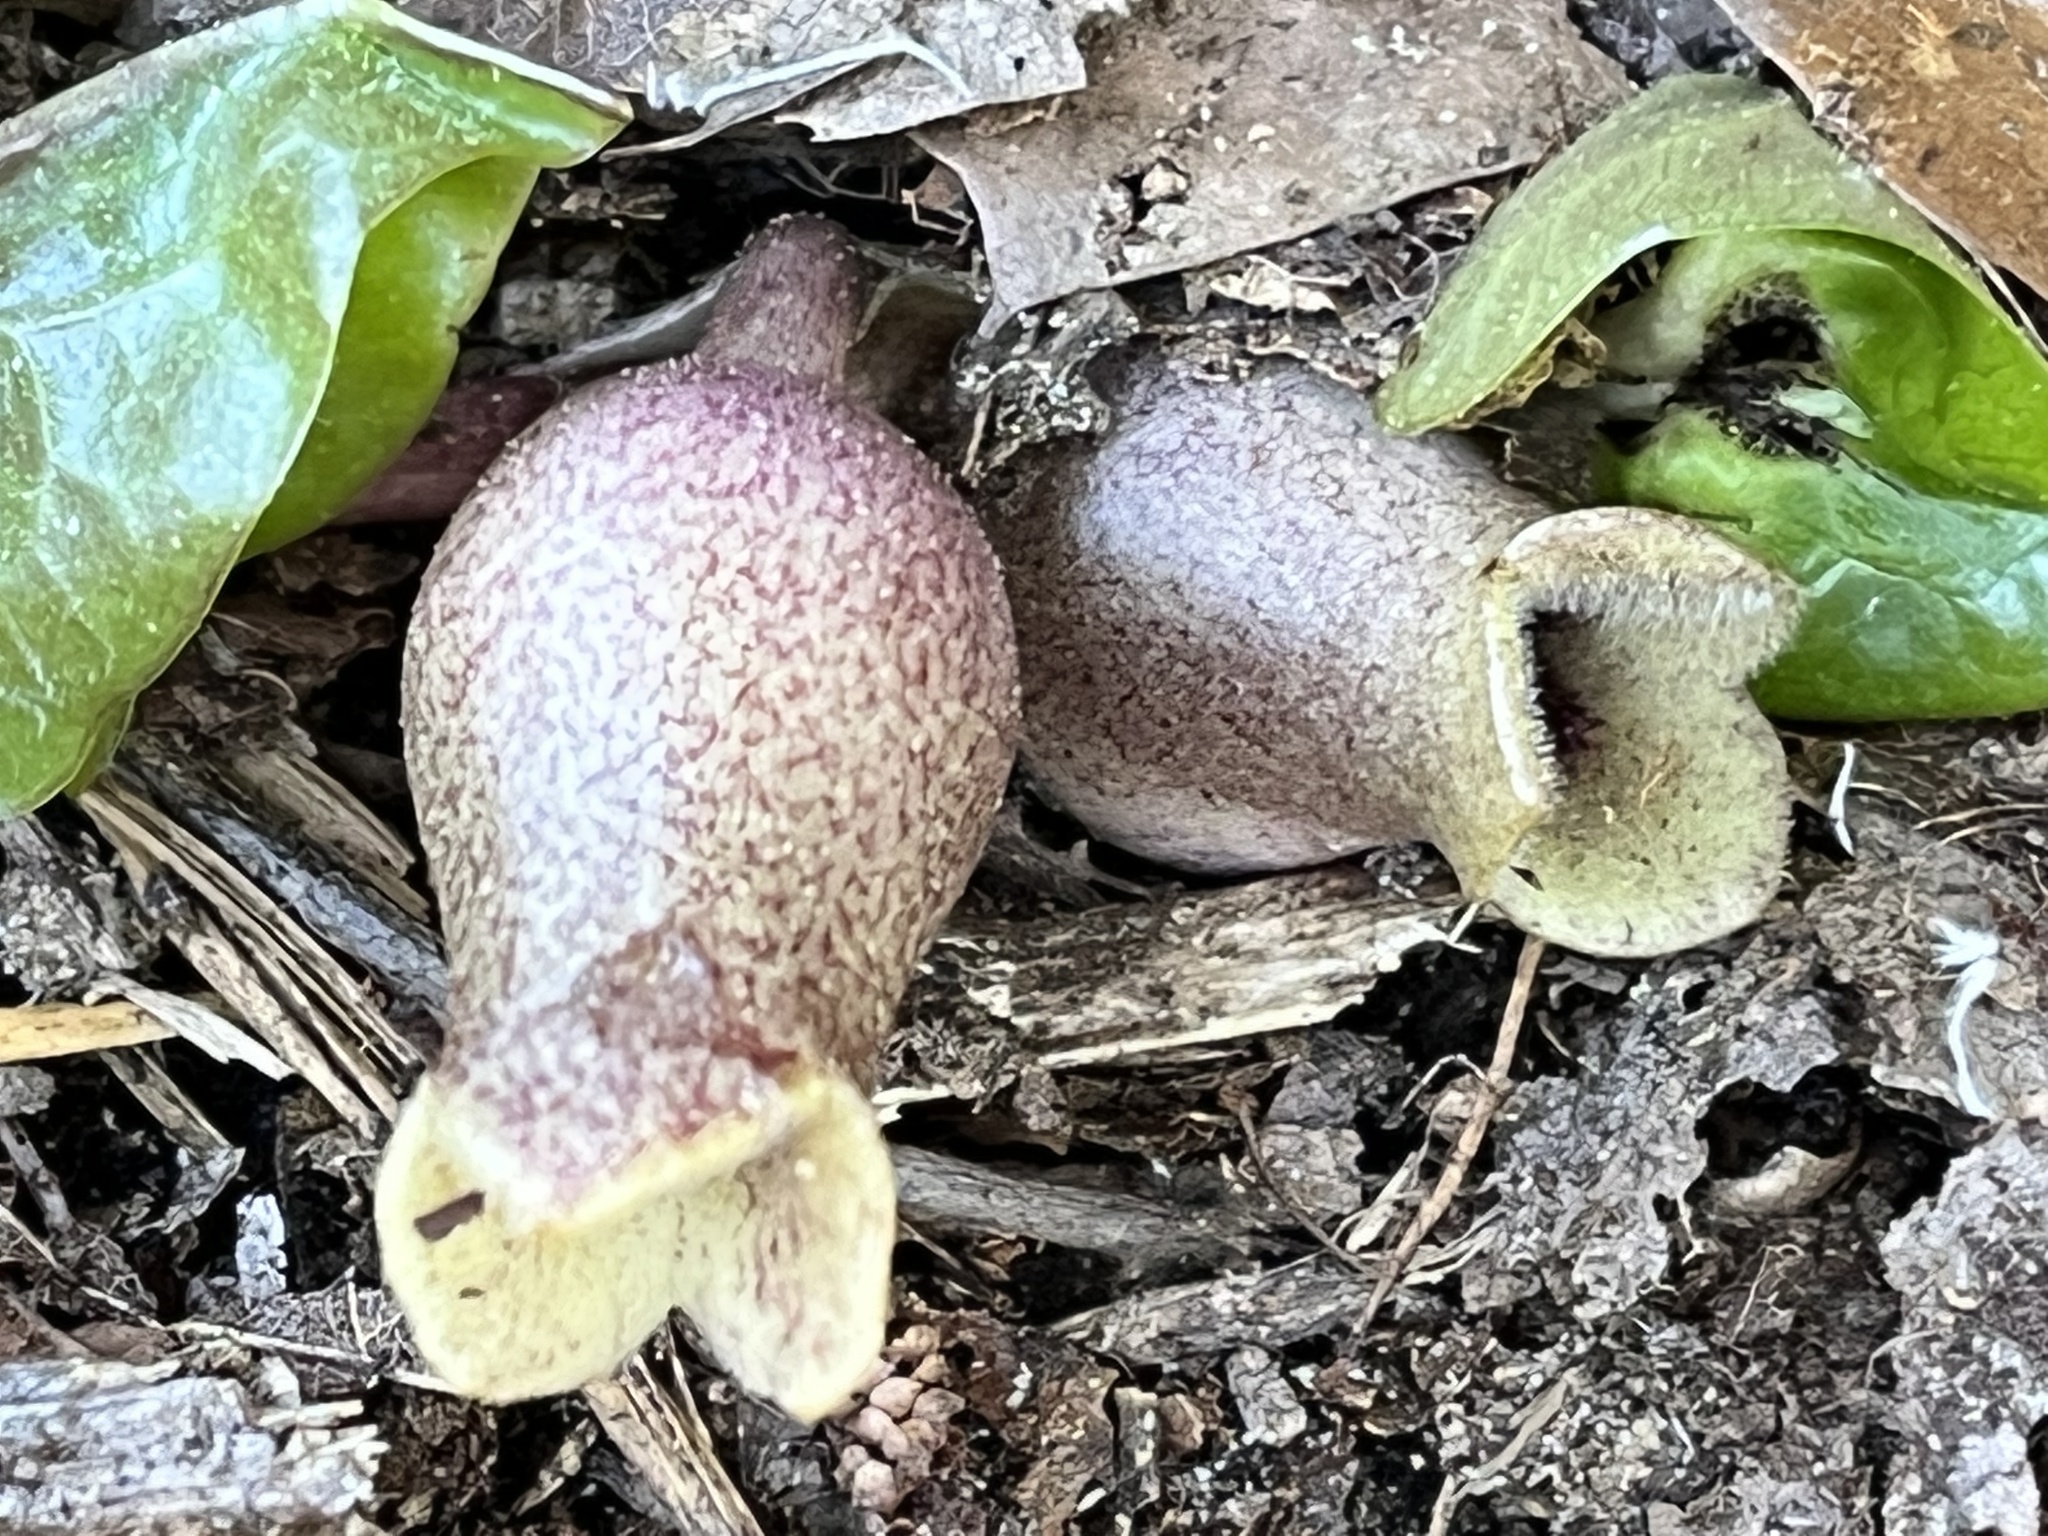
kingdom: Plantae
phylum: Tracheophyta
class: Magnoliopsida
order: Piperales
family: Aristolochiaceae
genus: Hexastylis
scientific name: Hexastylis arifolia
